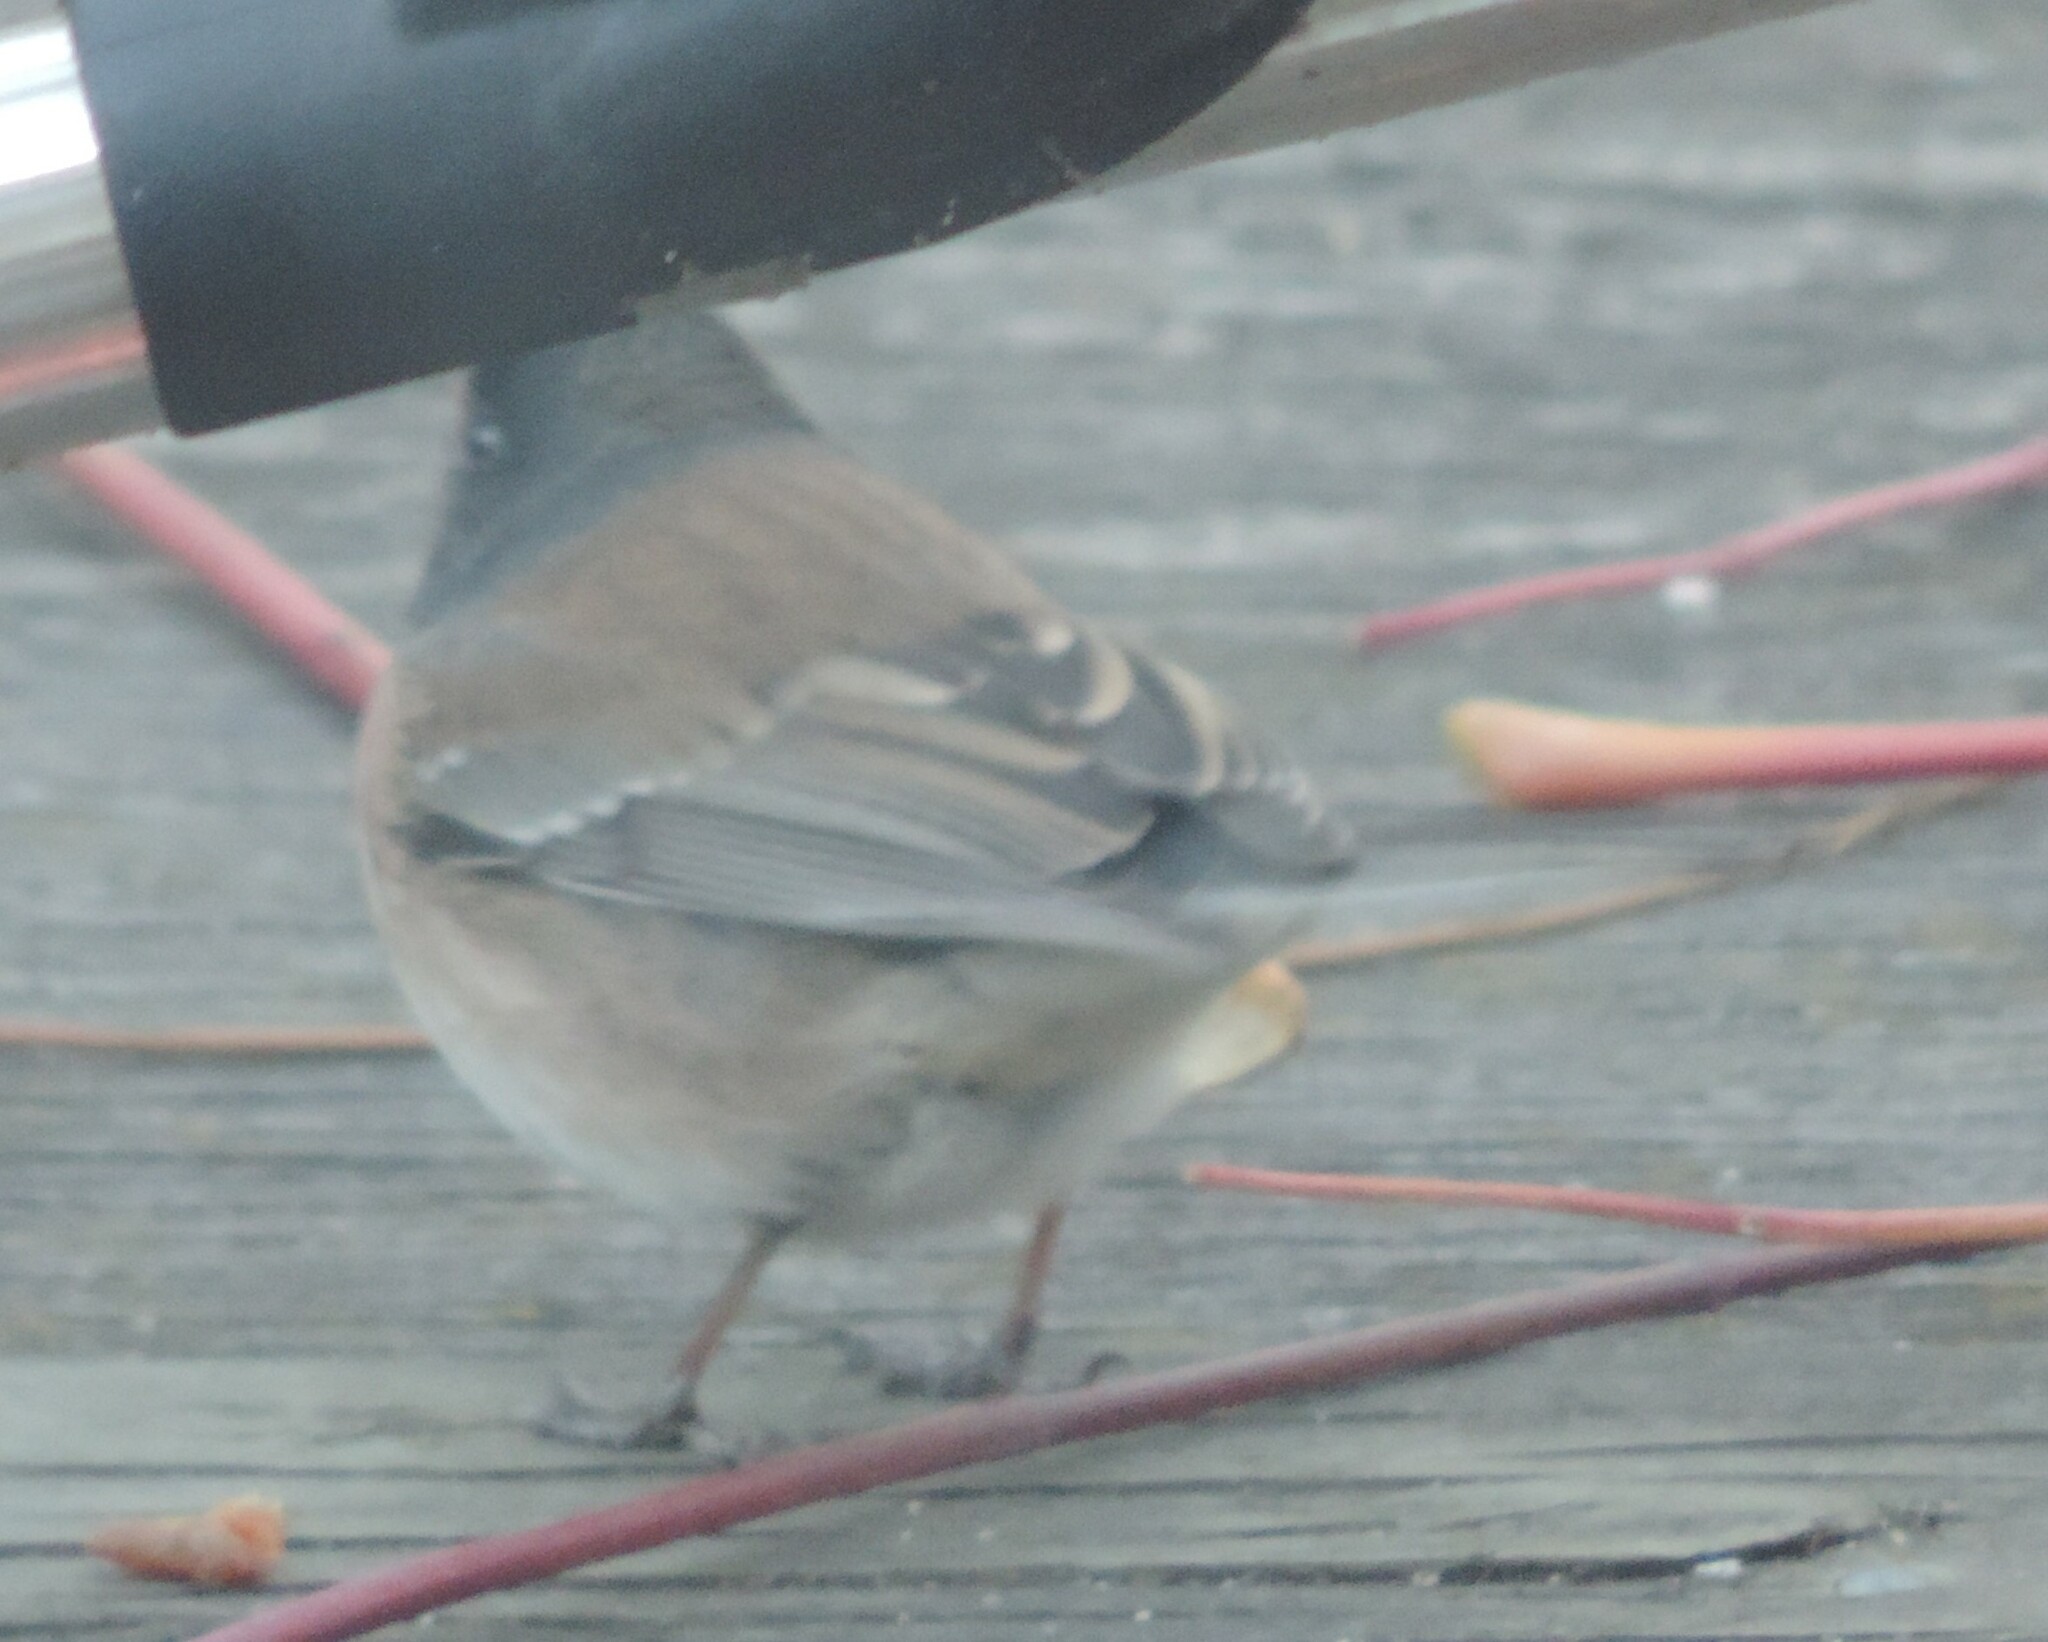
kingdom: Animalia
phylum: Chordata
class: Aves
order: Passeriformes
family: Passerellidae
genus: Junco
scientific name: Junco hyemalis
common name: Dark-eyed junco
